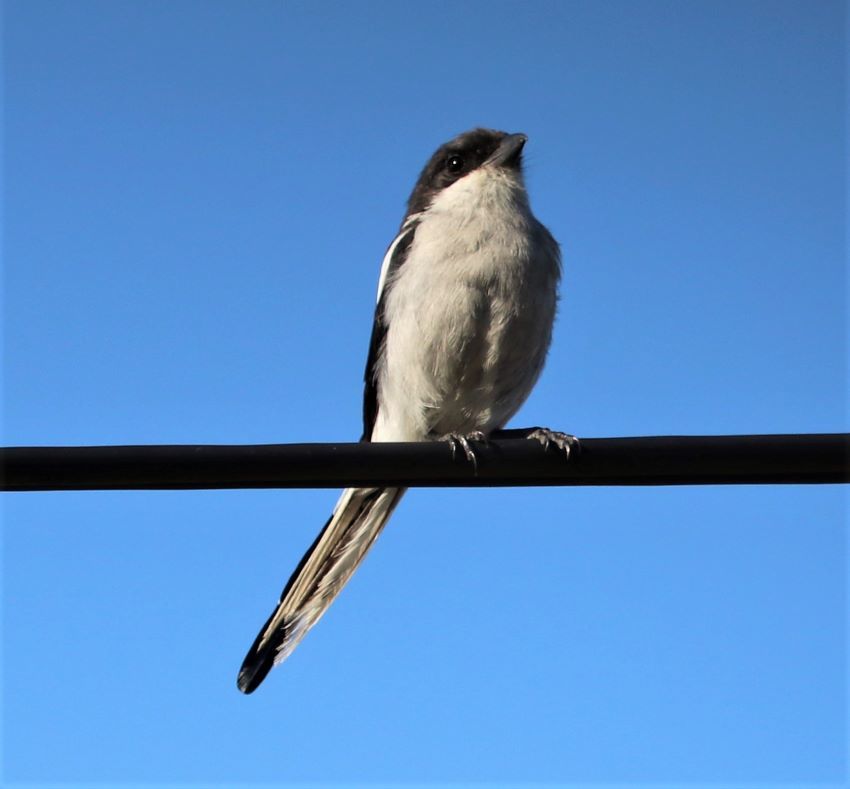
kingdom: Animalia
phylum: Chordata
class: Aves
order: Passeriformes
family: Laniidae
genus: Lanius
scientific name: Lanius collaris
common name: Southern fiscal
